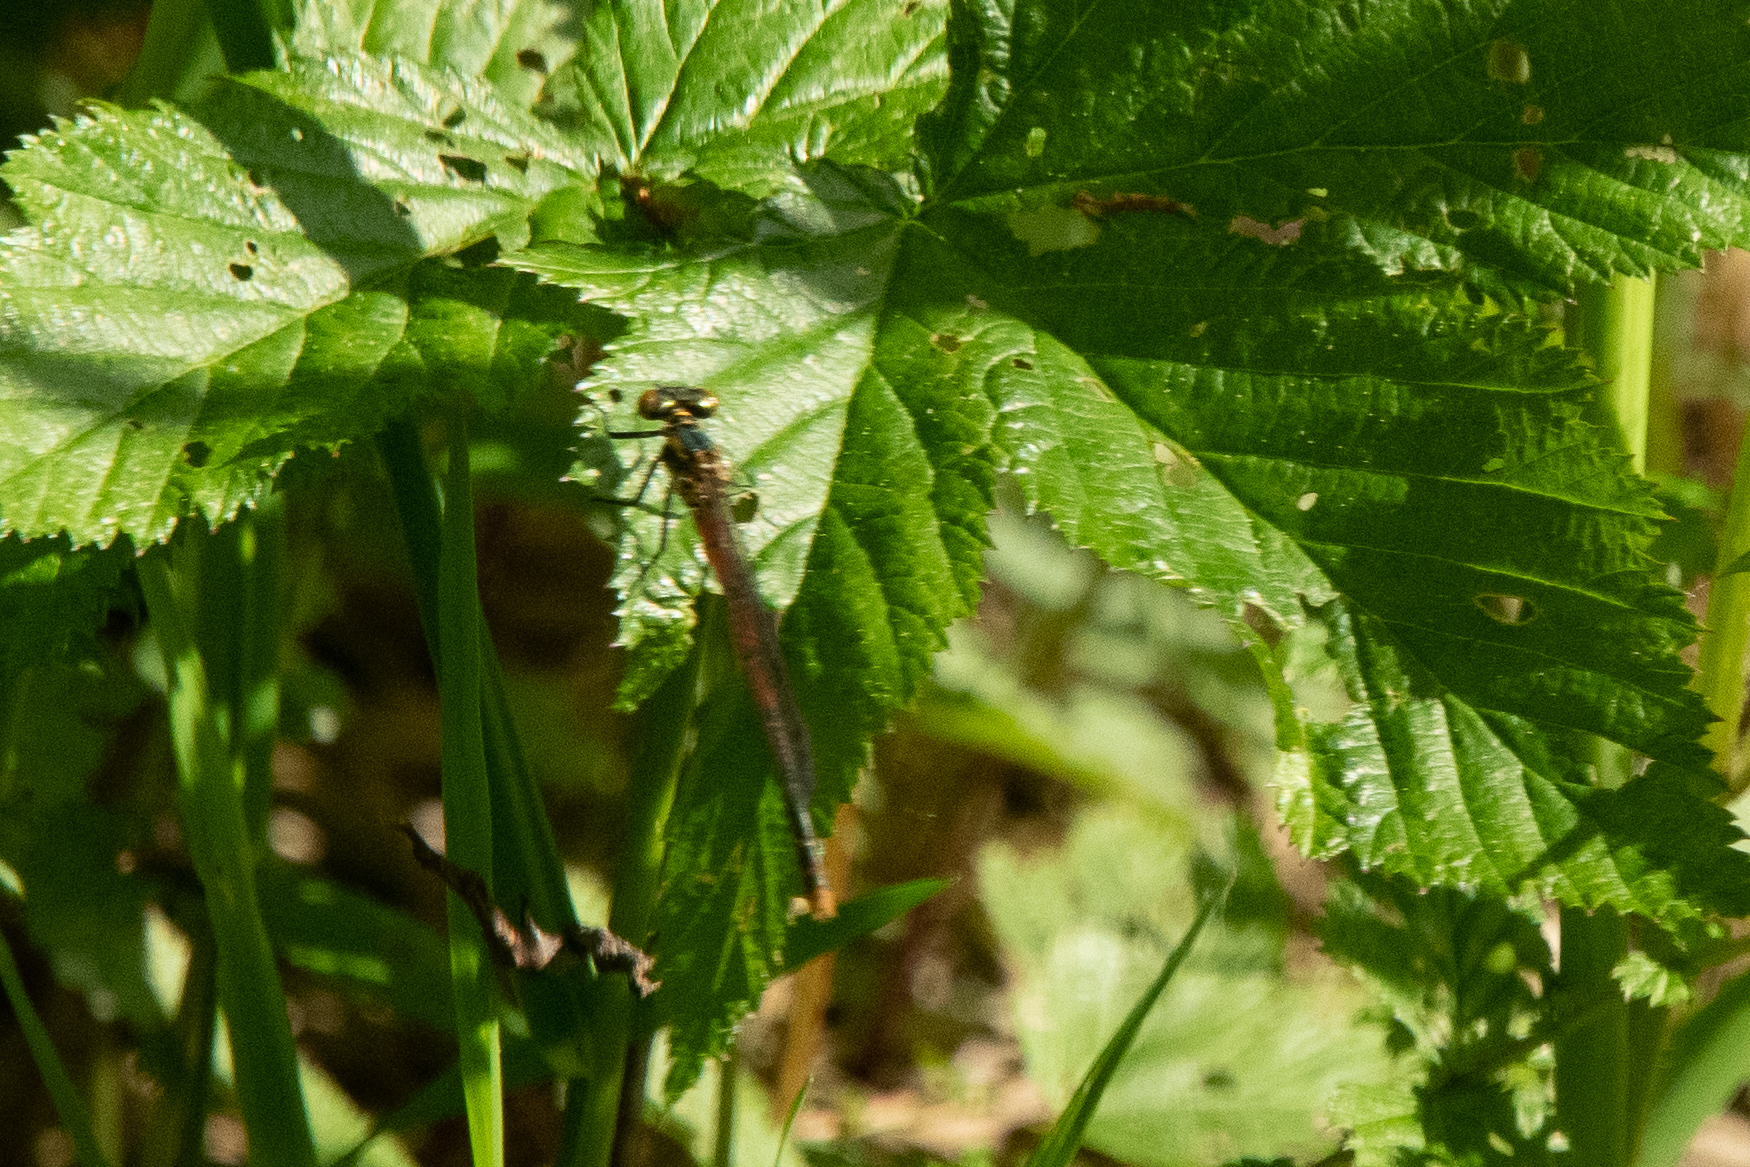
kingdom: Animalia
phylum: Arthropoda
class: Insecta
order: Odonata
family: Coenagrionidae
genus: Pyrrhosoma
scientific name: Pyrrhosoma nymphula
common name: Large red damsel
